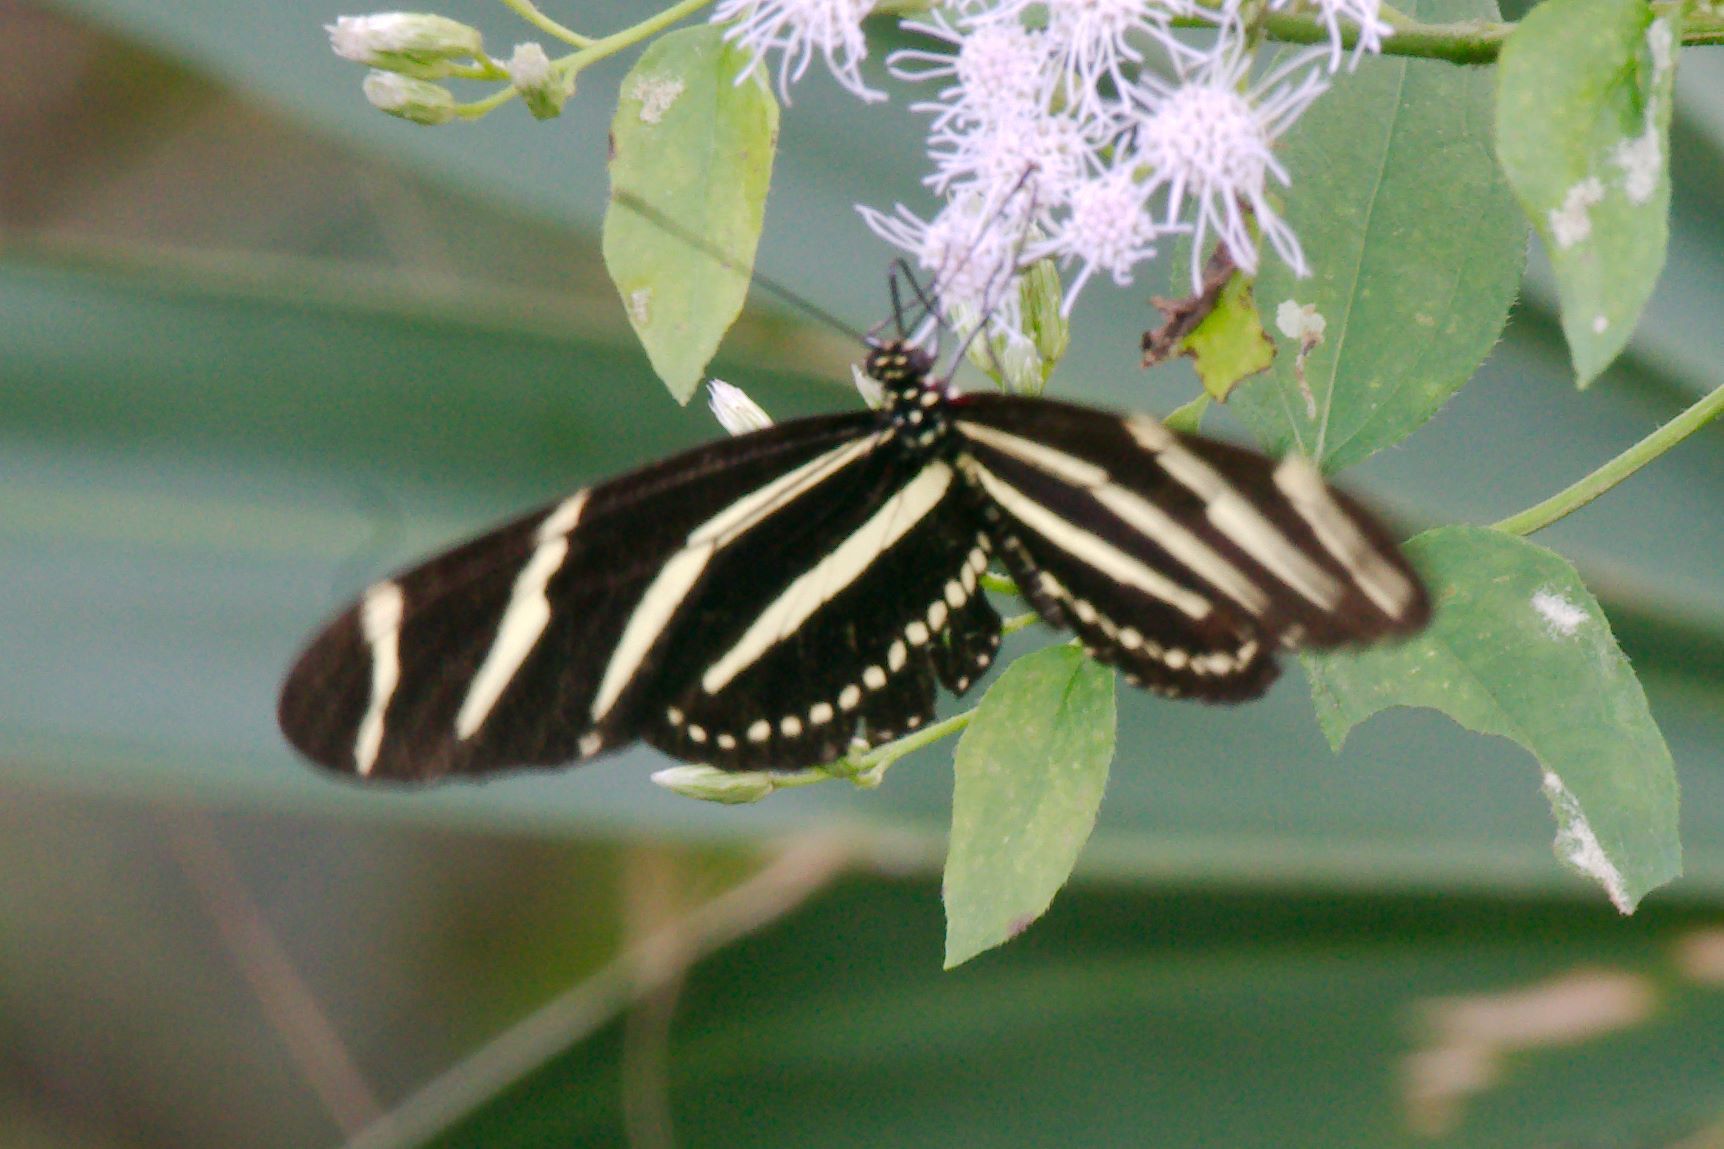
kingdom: Animalia
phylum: Arthropoda
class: Insecta
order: Lepidoptera
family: Nymphalidae
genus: Heliconius
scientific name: Heliconius charithonia
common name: Zebra long wing
